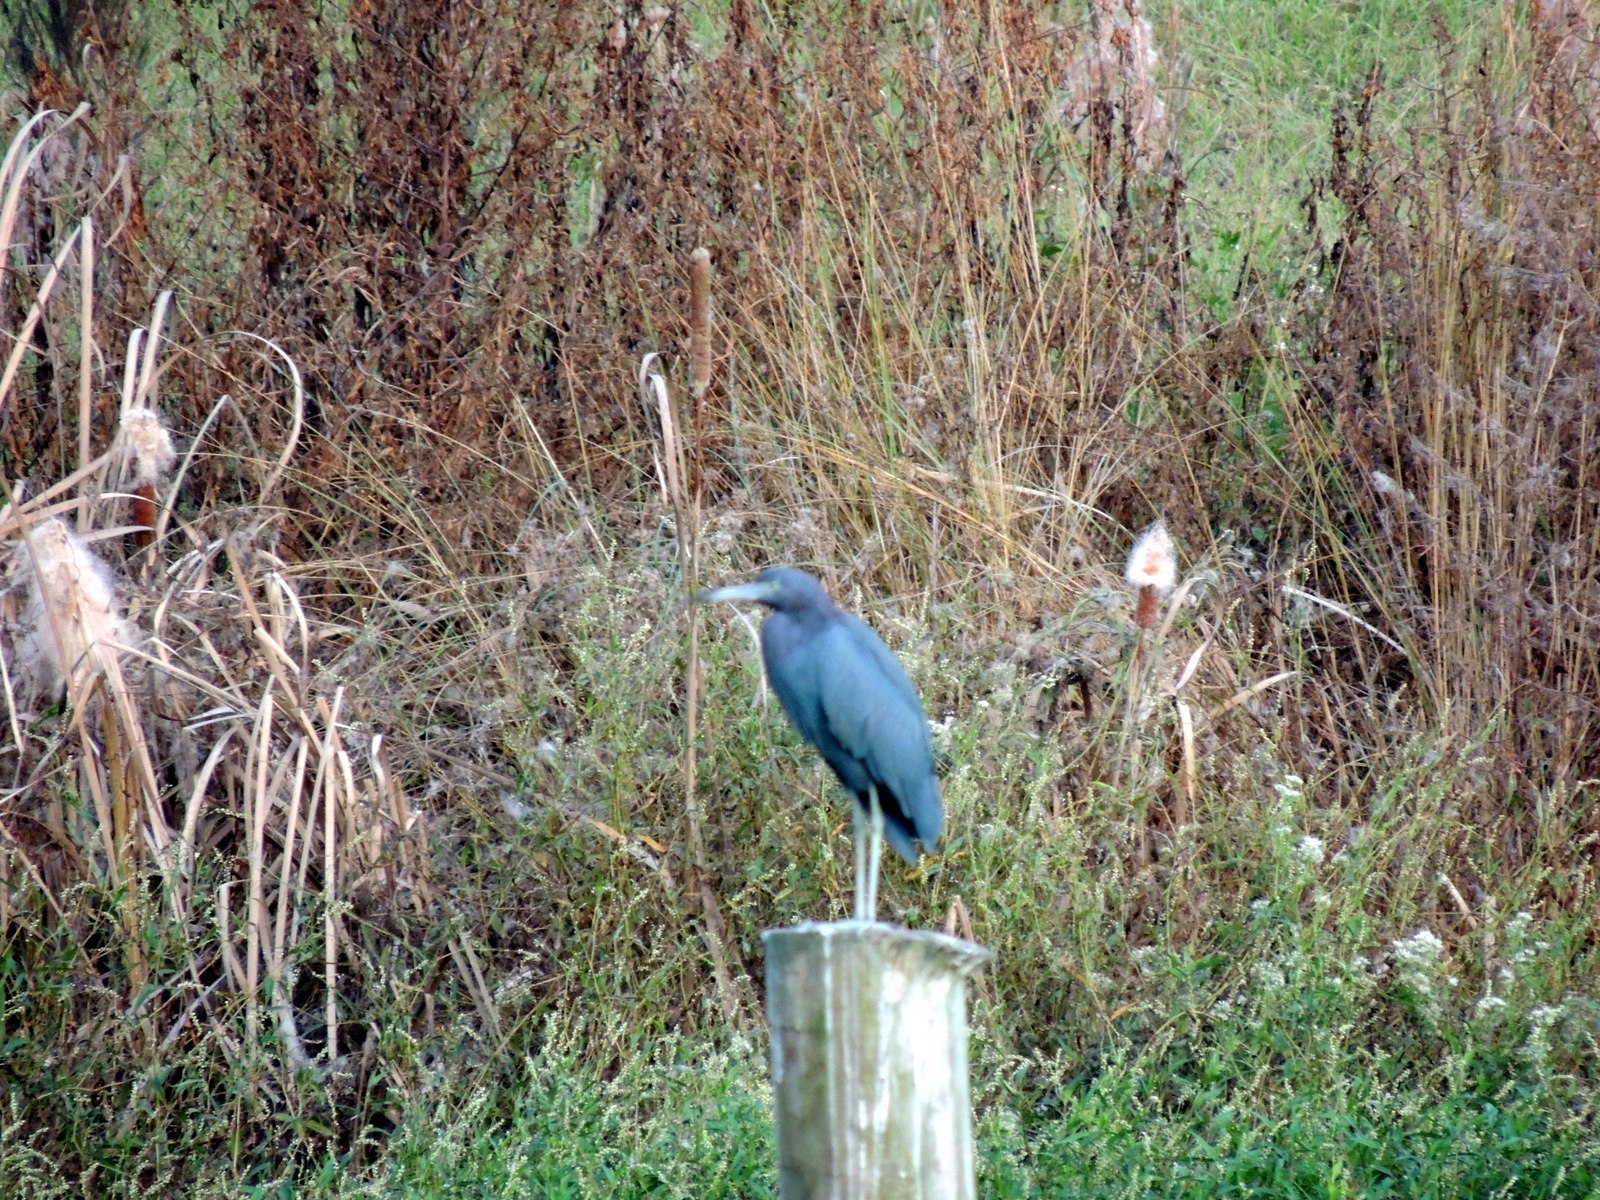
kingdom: Animalia
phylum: Chordata
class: Aves
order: Pelecaniformes
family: Ardeidae
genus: Egretta
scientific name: Egretta caerulea
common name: Little blue heron
